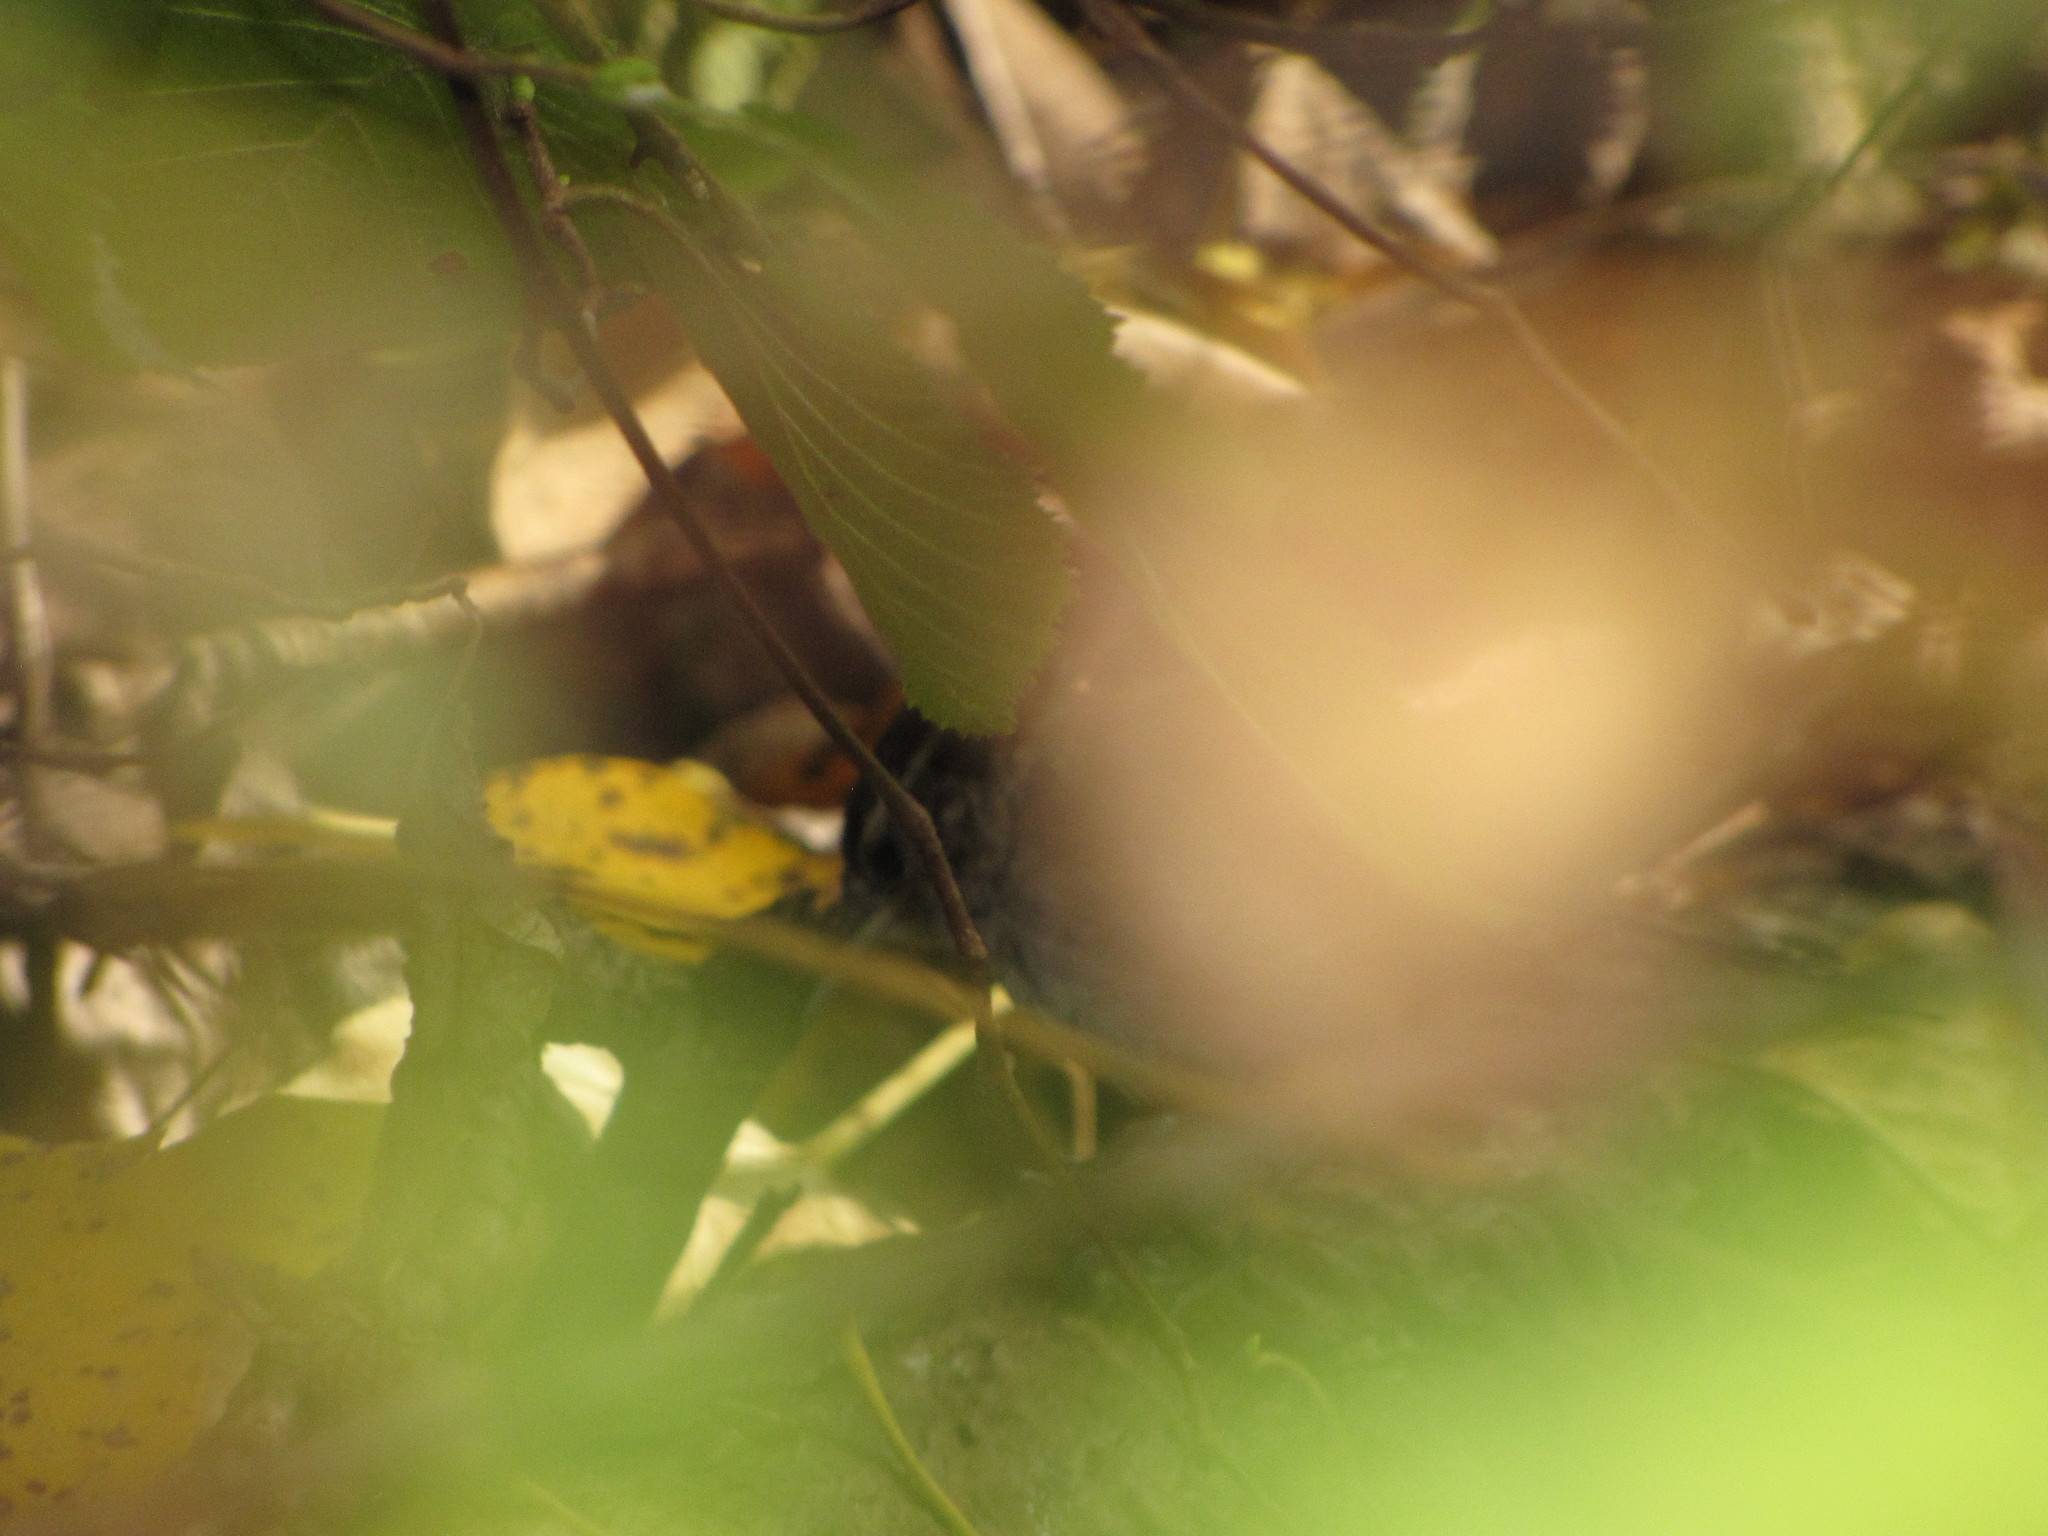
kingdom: Animalia
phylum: Chordata
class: Aves
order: Passeriformes
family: Troglodytidae
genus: Thryomanes
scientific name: Thryomanes bewickii
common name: Bewick's wren
